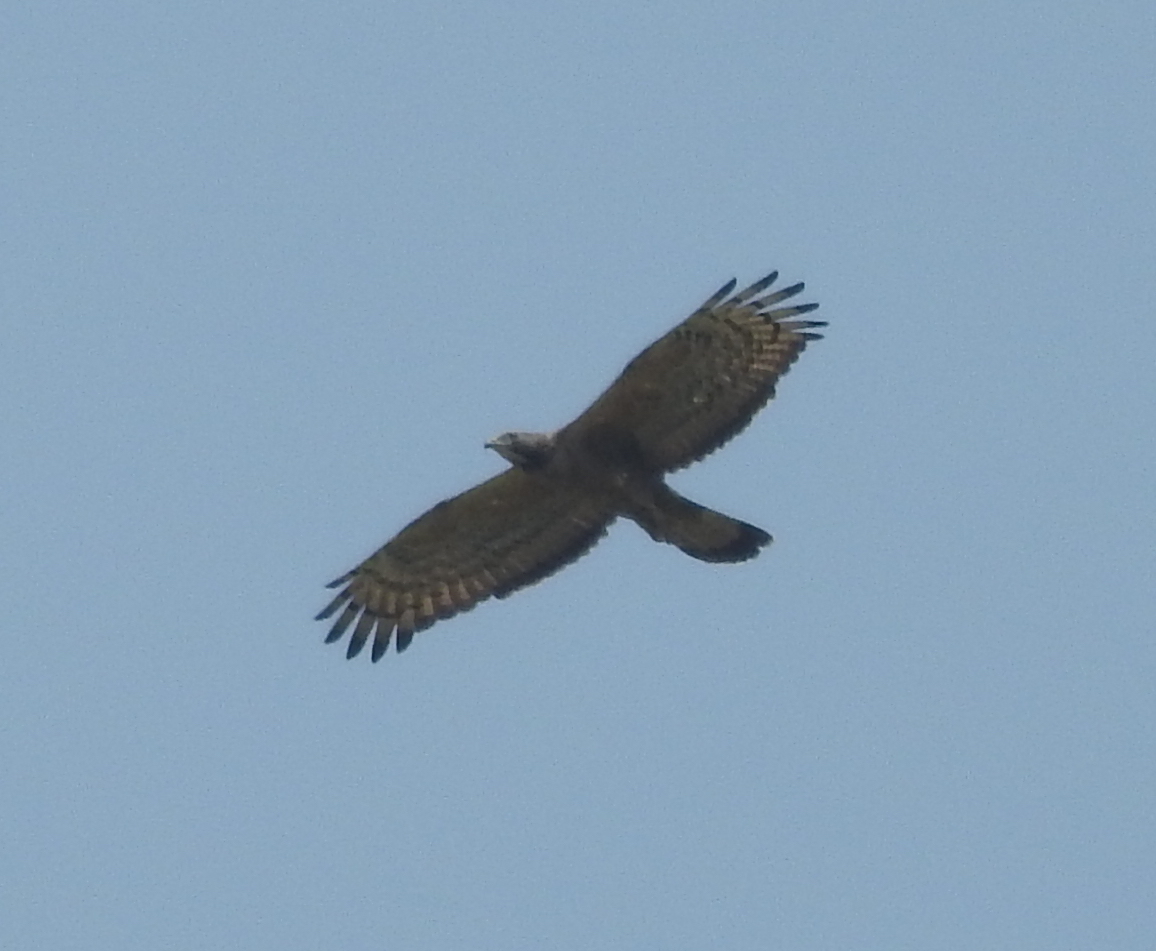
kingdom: Animalia
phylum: Chordata
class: Aves
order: Accipitriformes
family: Accipitridae
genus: Pernis
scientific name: Pernis ptilorhynchus
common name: Crested honey buzzard
